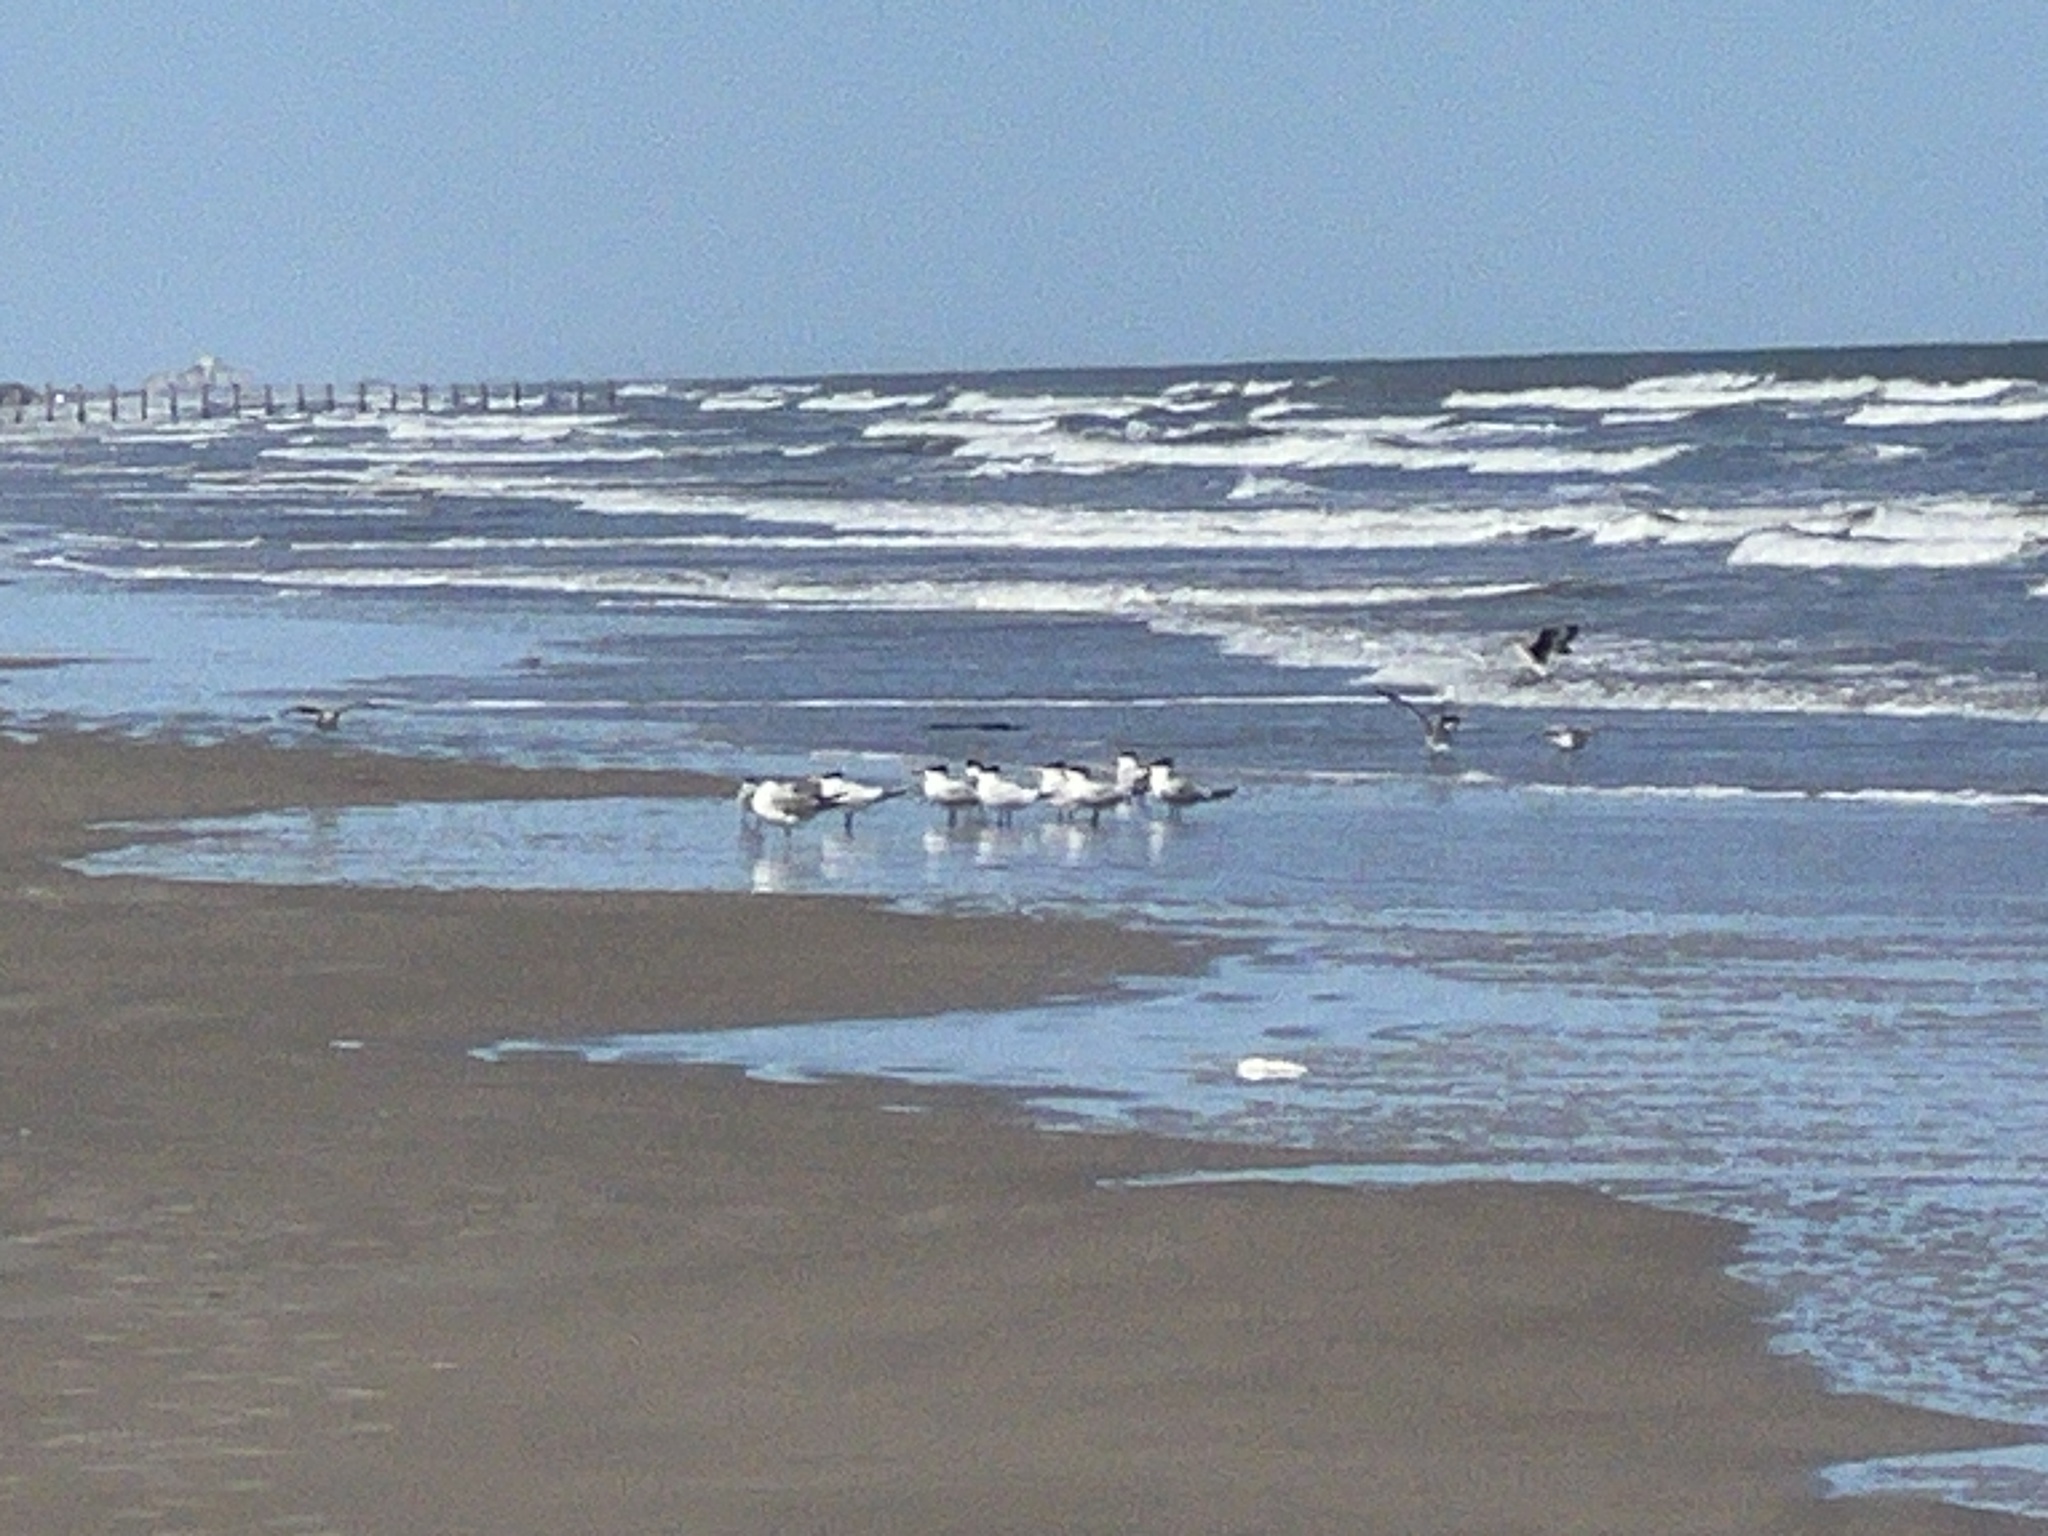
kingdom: Animalia
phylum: Chordata
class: Aves
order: Charadriiformes
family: Laridae
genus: Thalasseus
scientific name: Thalasseus maximus
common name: Royal tern
